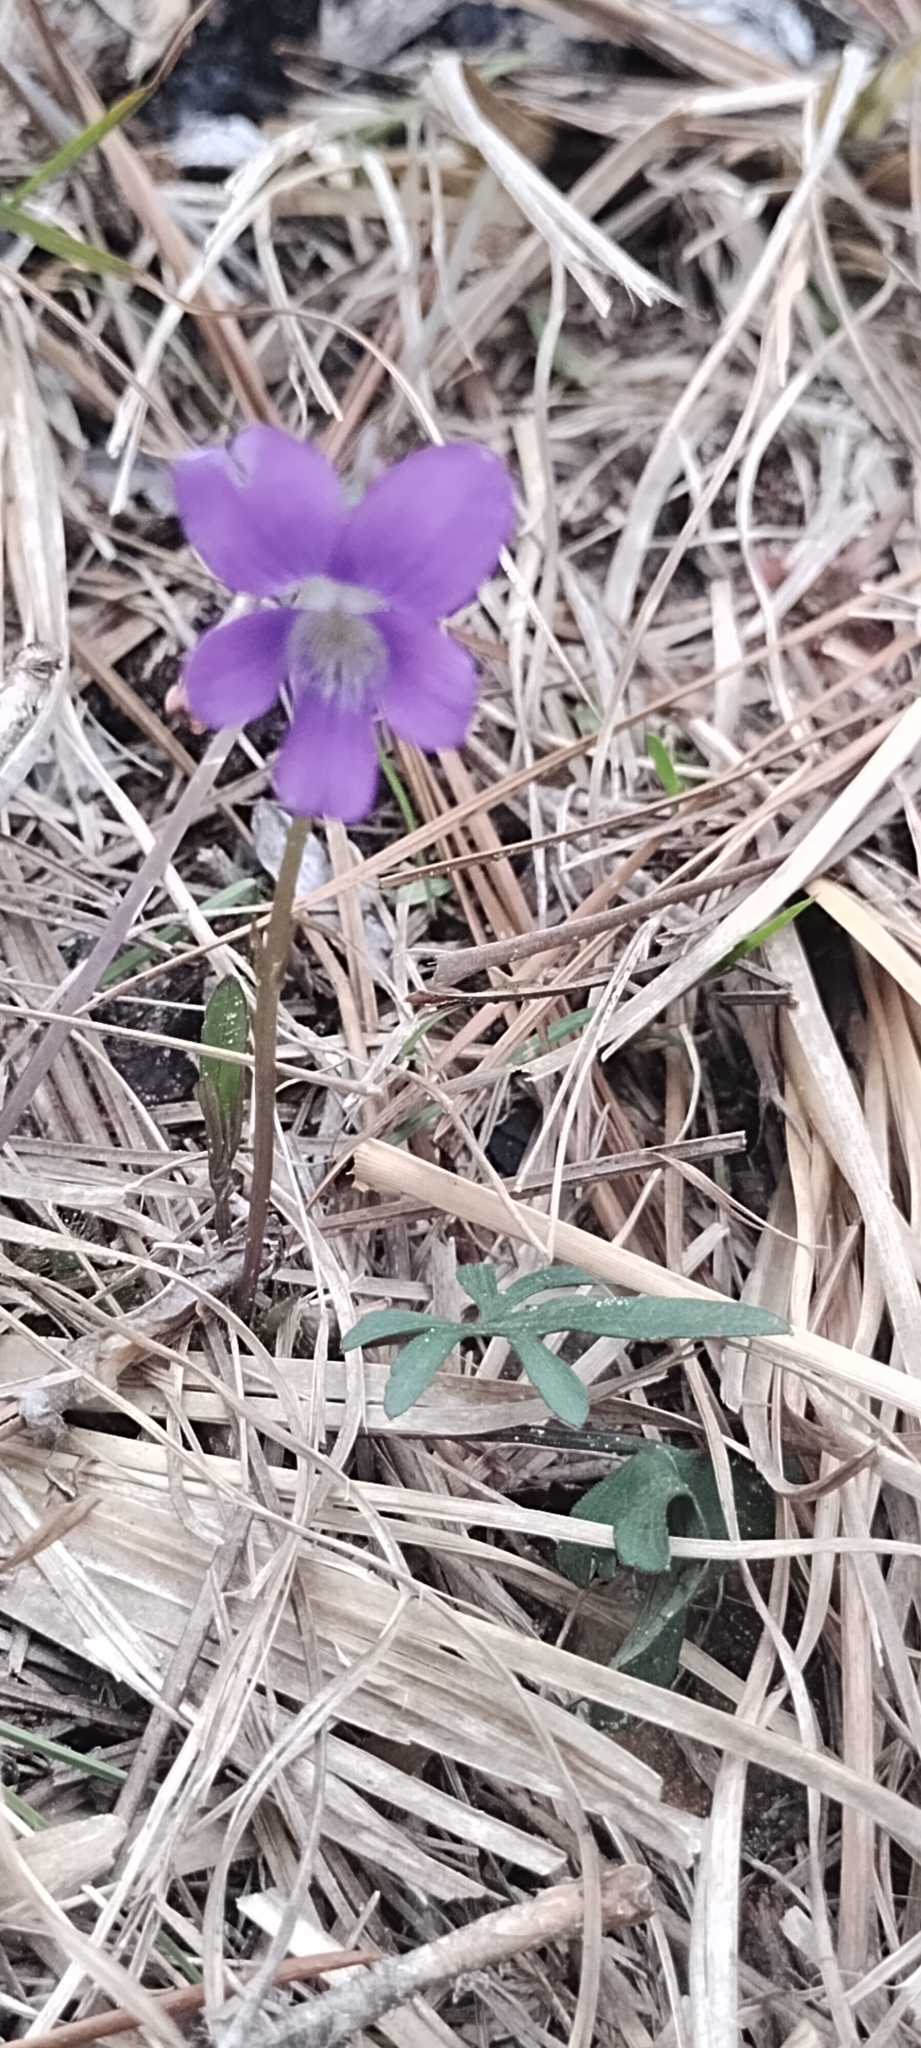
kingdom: Plantae
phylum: Tracheophyta
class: Magnoliopsida
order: Malpighiales
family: Violaceae
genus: Viola
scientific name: Viola septemloba
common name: Southern coast violet
